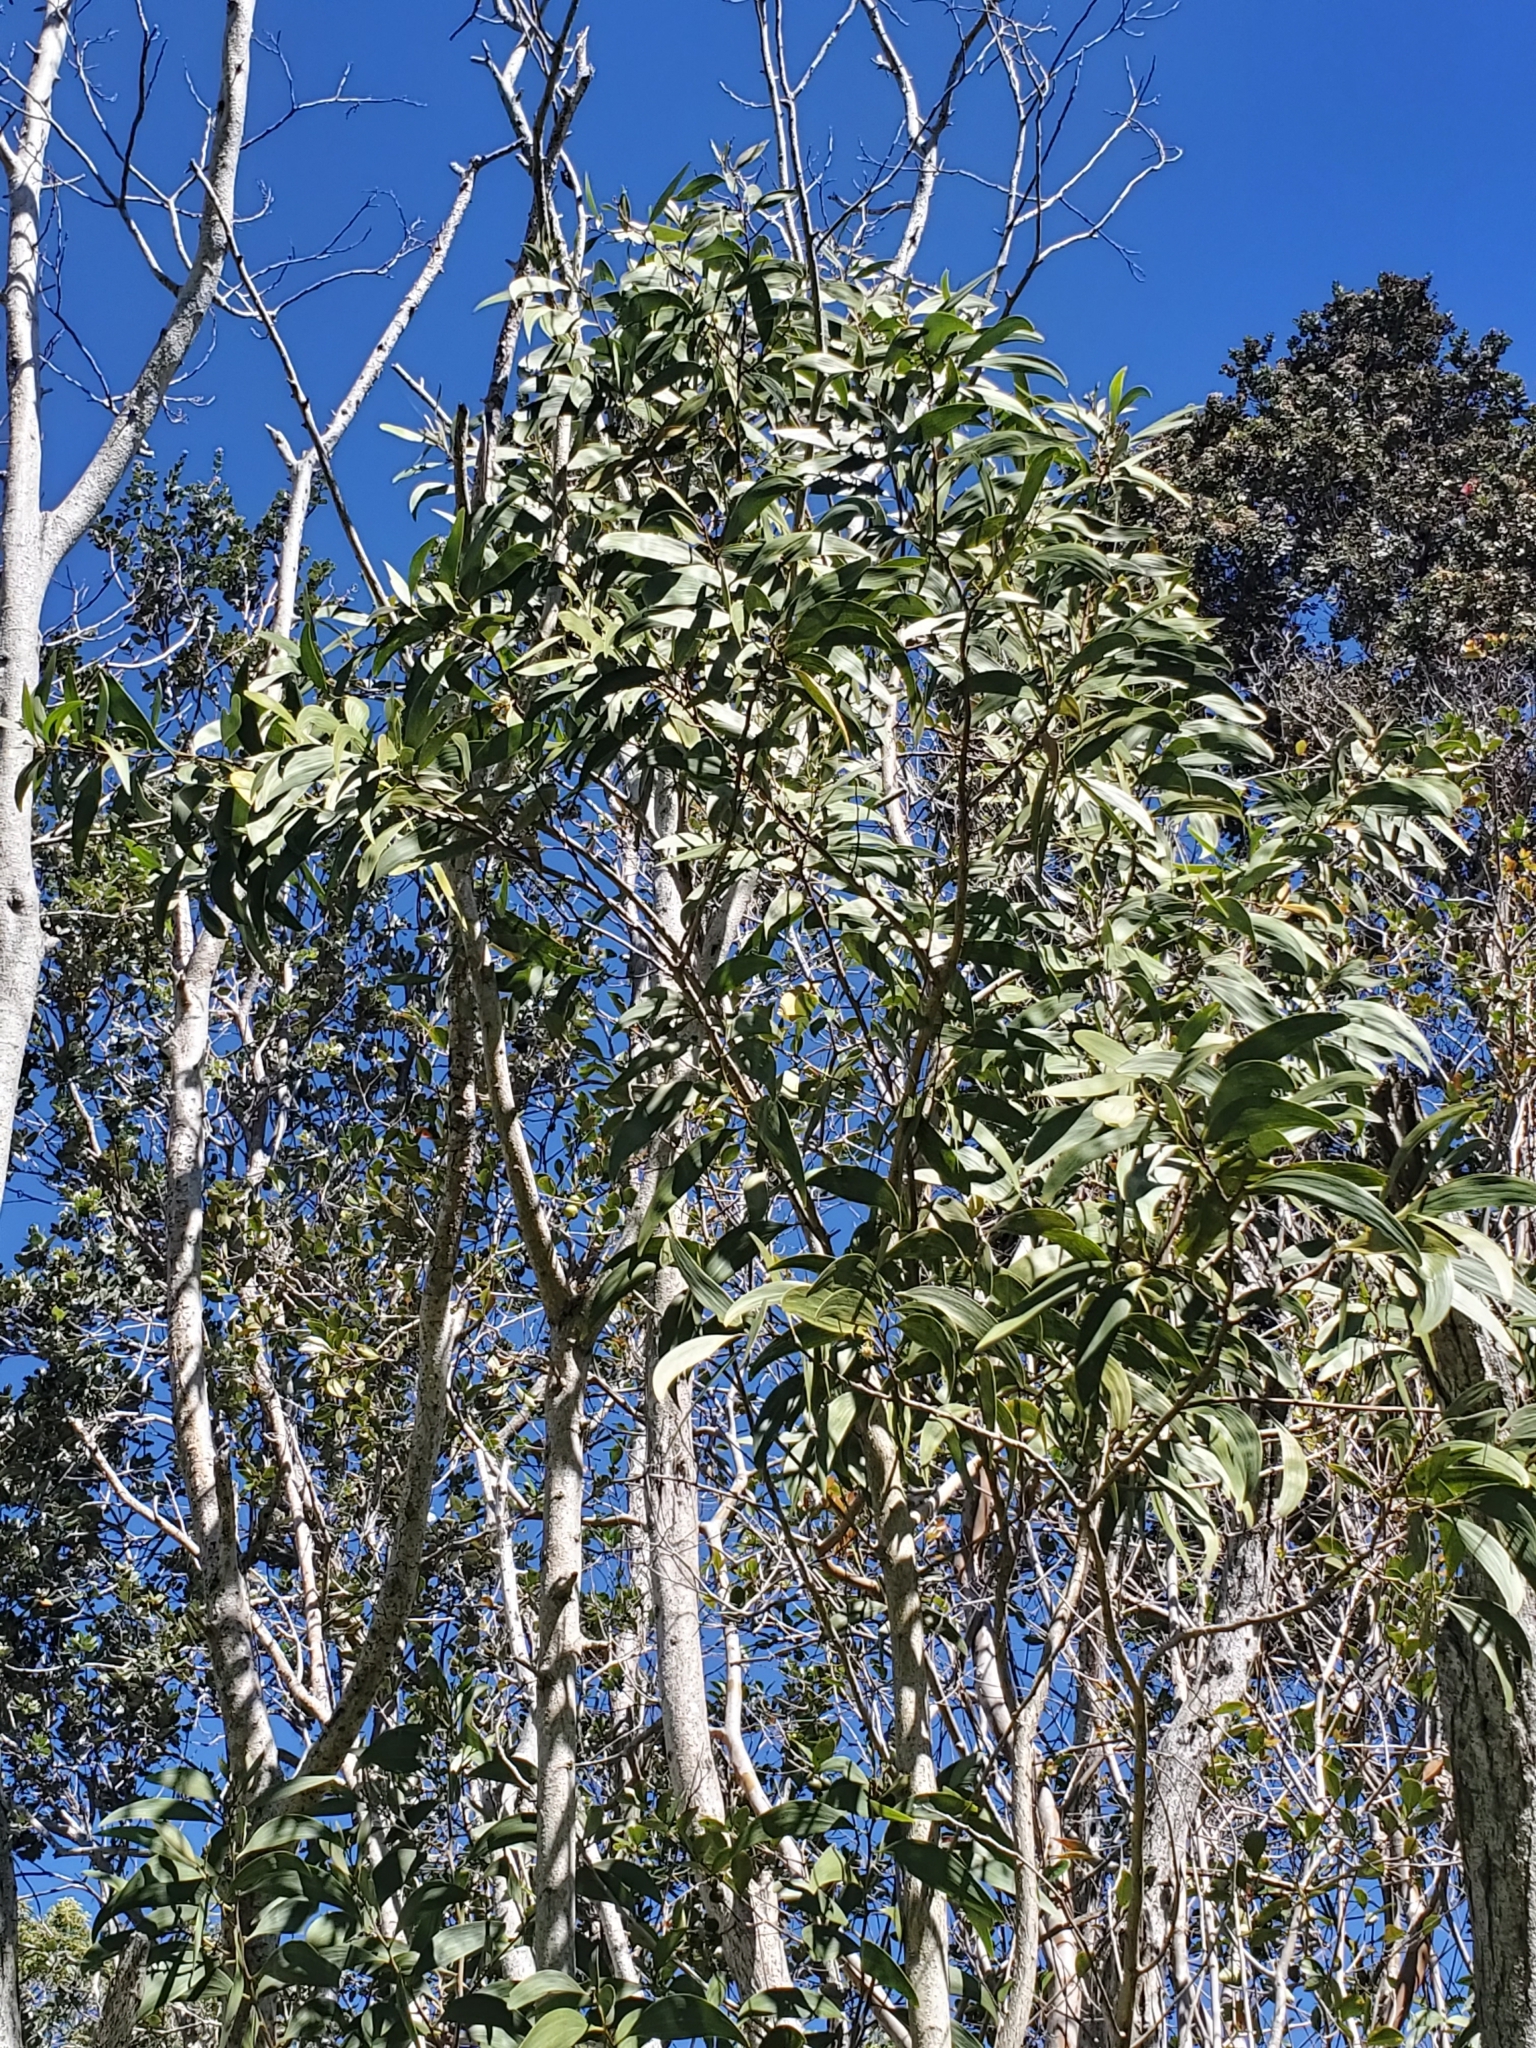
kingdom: Plantae
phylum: Tracheophyta
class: Magnoliopsida
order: Fabales
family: Fabaceae
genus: Acacia
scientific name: Acacia koa
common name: Gray koa
